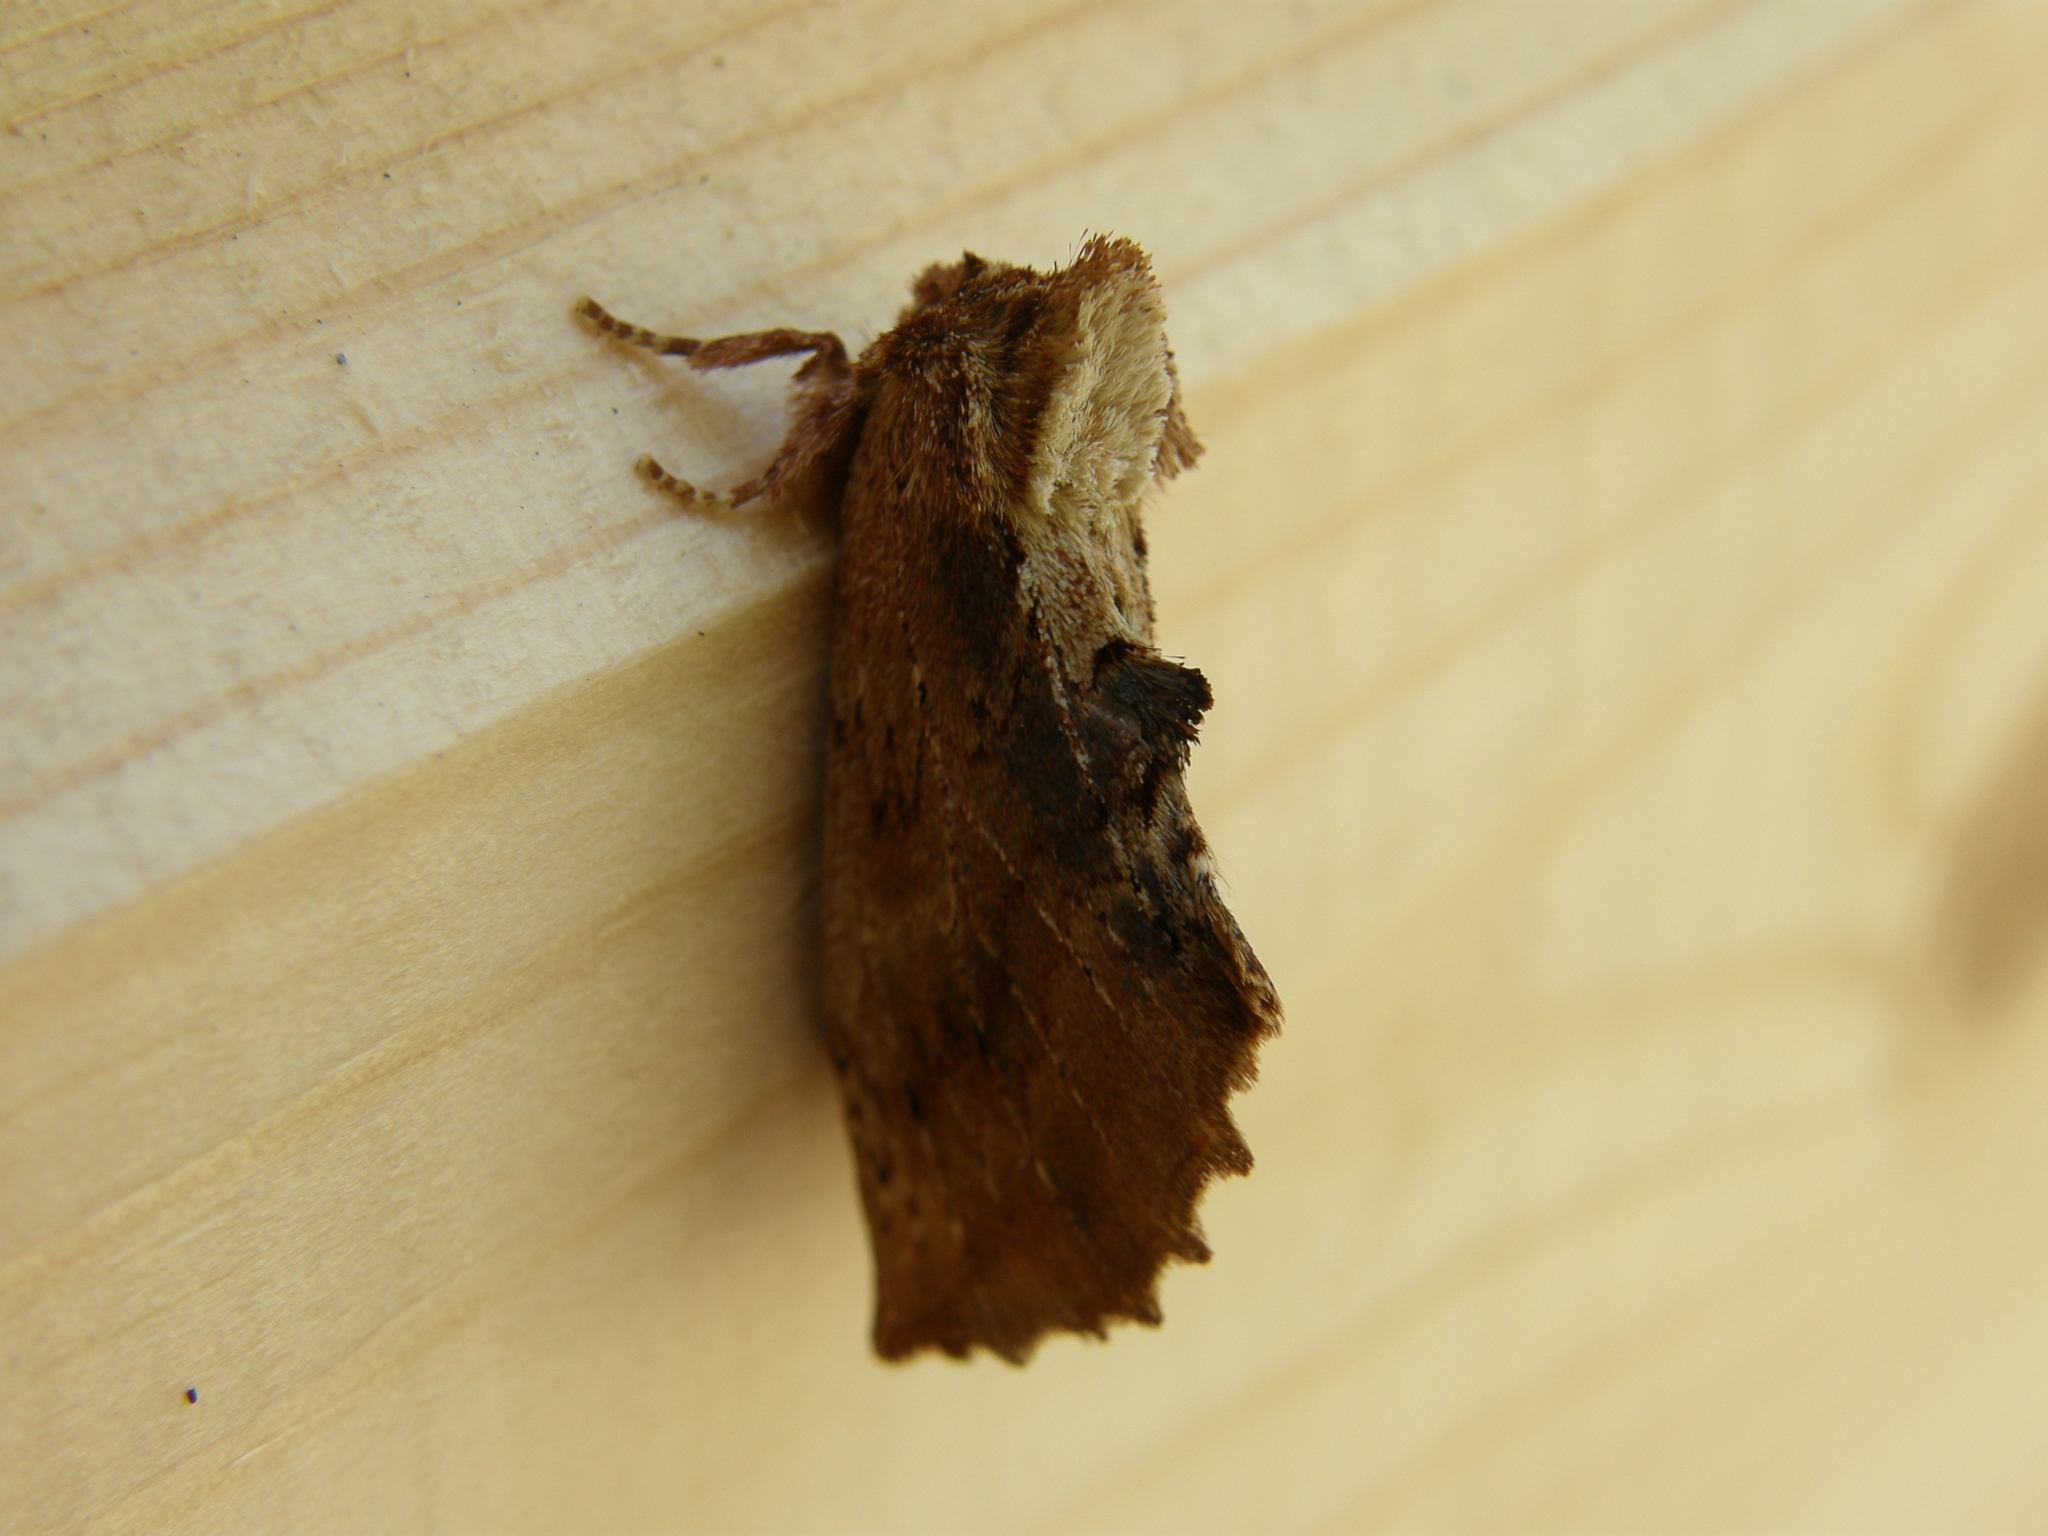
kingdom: Animalia
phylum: Arthropoda
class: Insecta
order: Lepidoptera
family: Notodontidae
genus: Ptilodon
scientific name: Ptilodon capucina
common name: Coxcomb prominent
